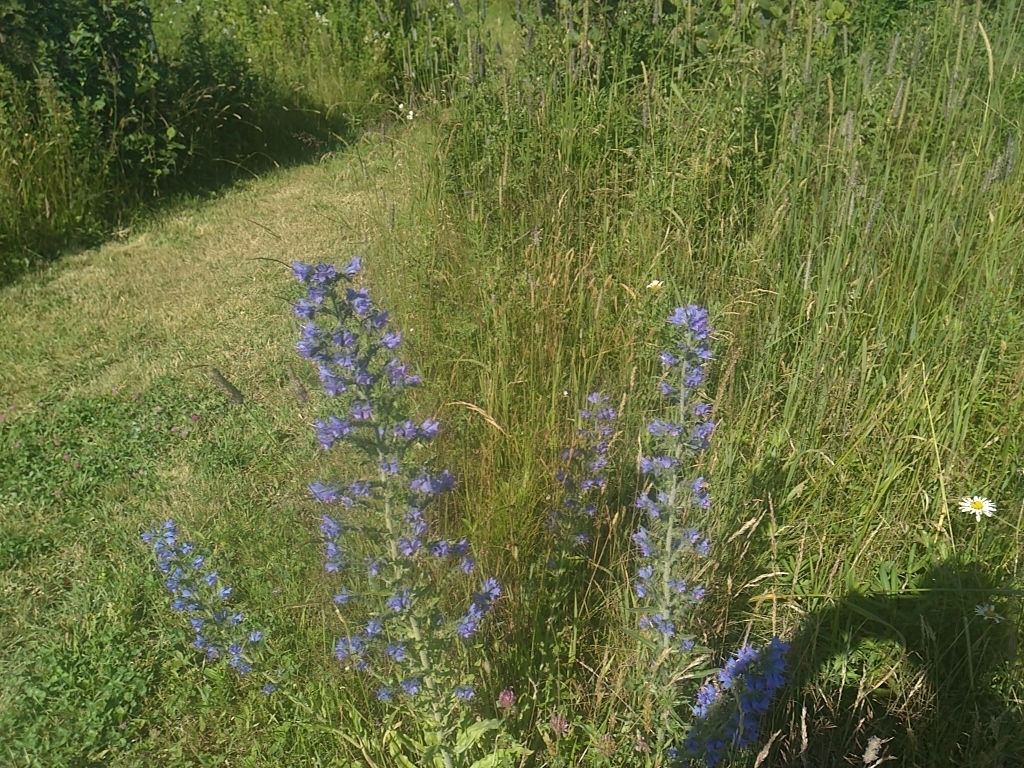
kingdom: Plantae
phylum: Tracheophyta
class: Magnoliopsida
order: Boraginales
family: Boraginaceae
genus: Echium
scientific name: Echium vulgare
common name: Common viper's bugloss
